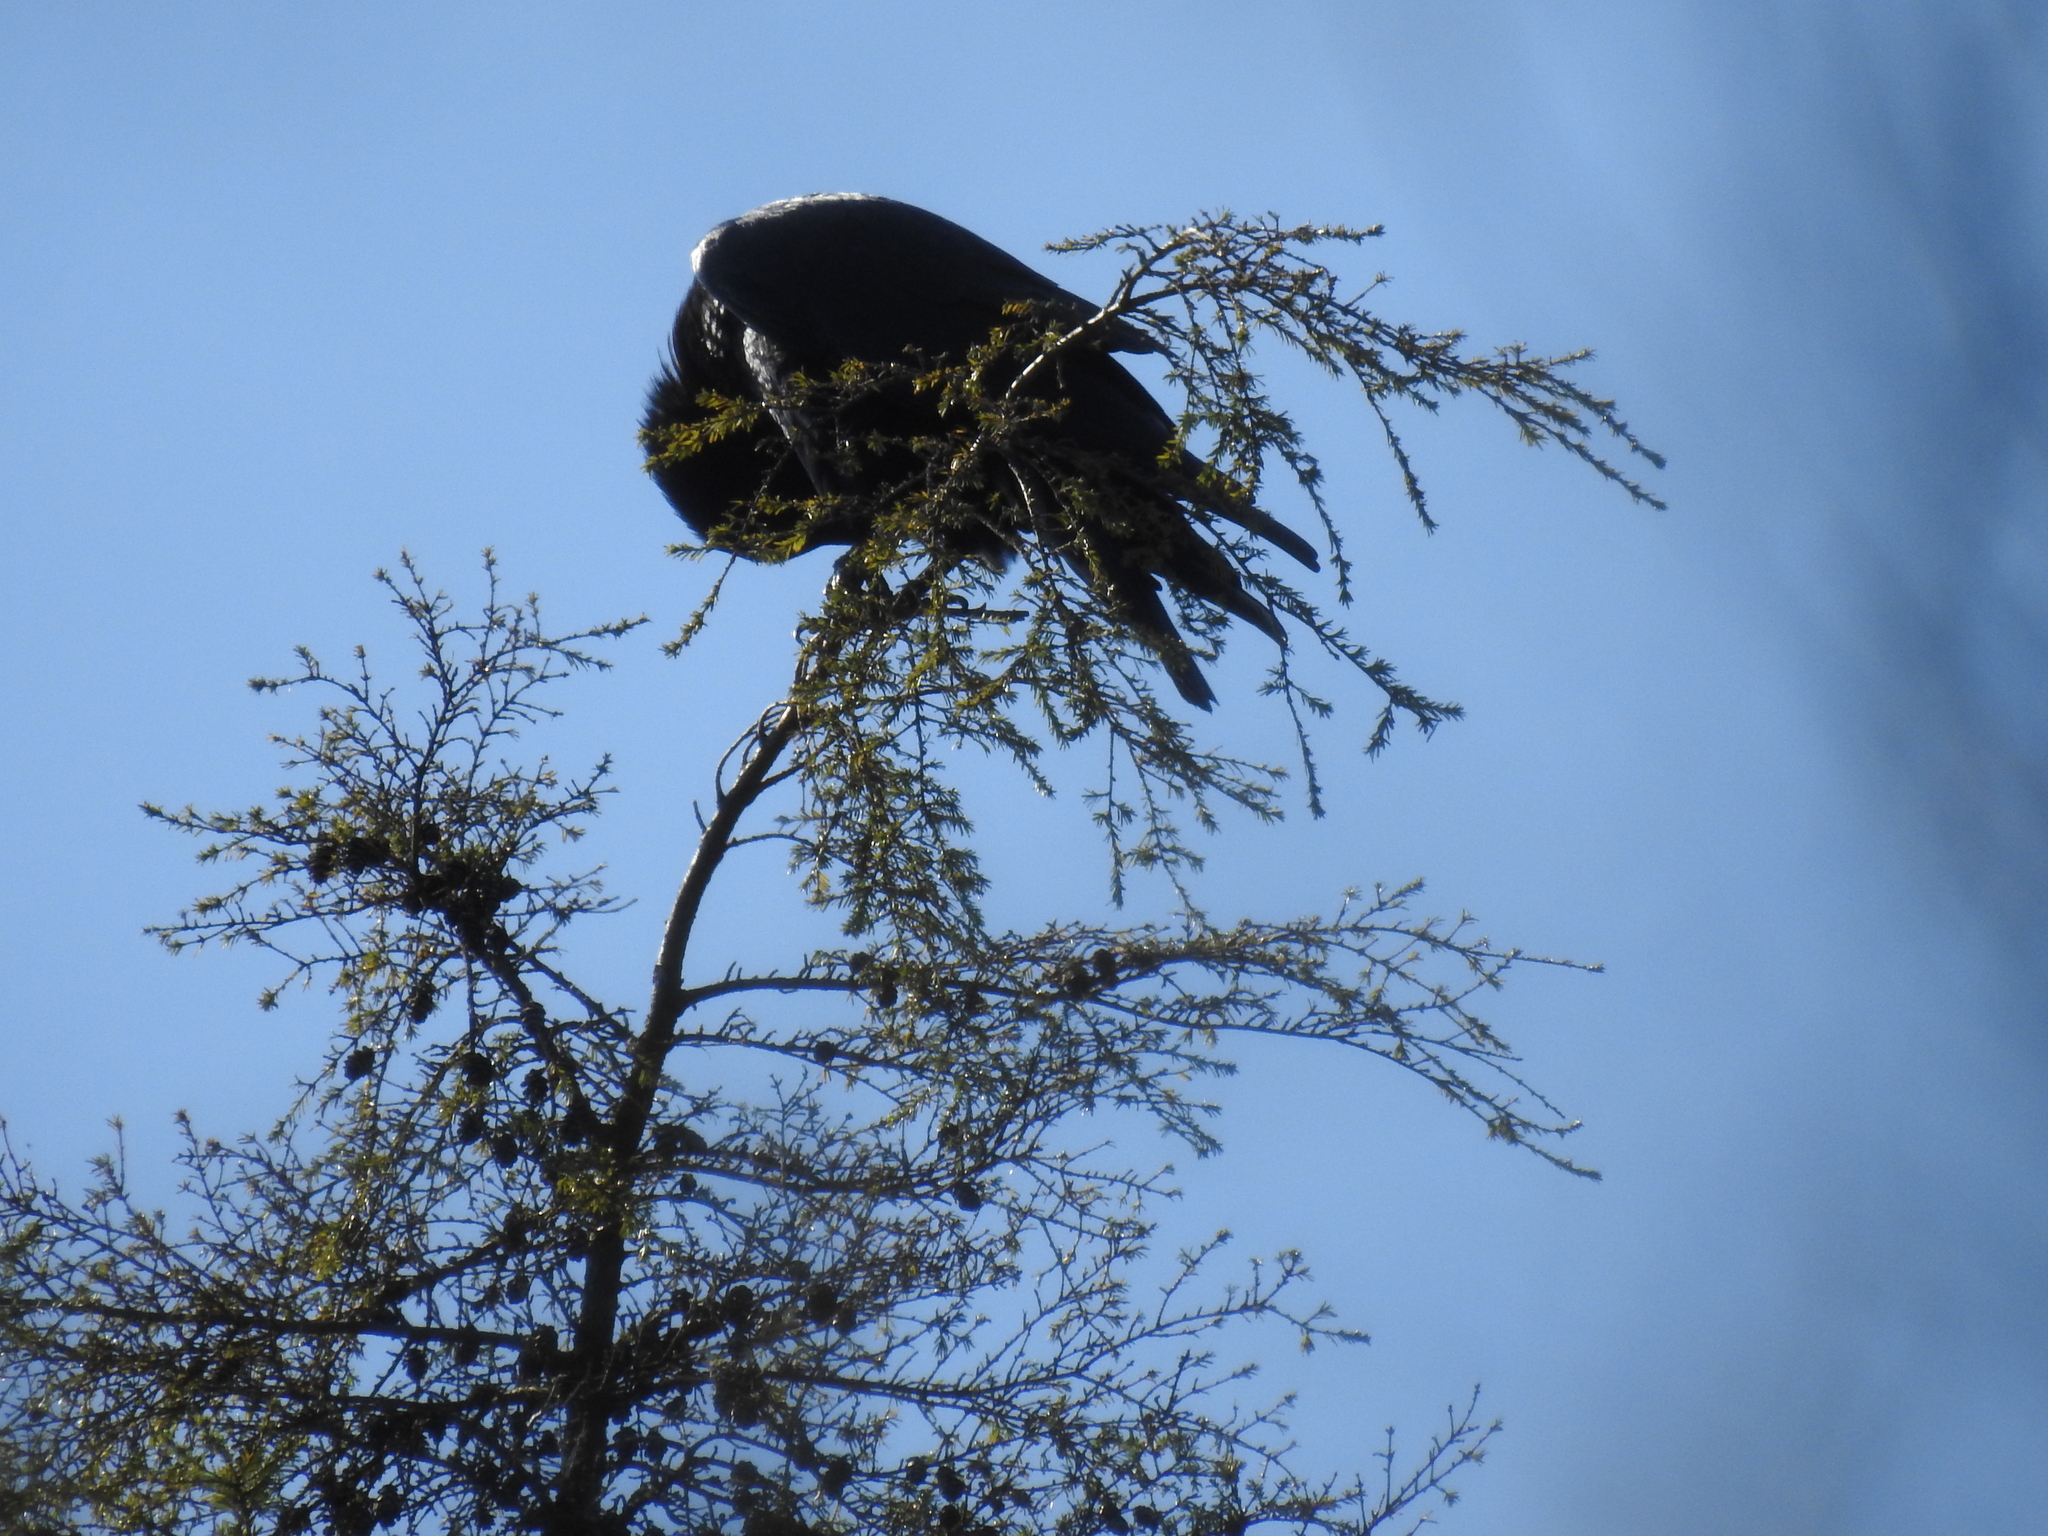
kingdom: Animalia
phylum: Chordata
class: Aves
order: Passeriformes
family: Corvidae
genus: Corvus
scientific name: Corvus corax
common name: Common raven
